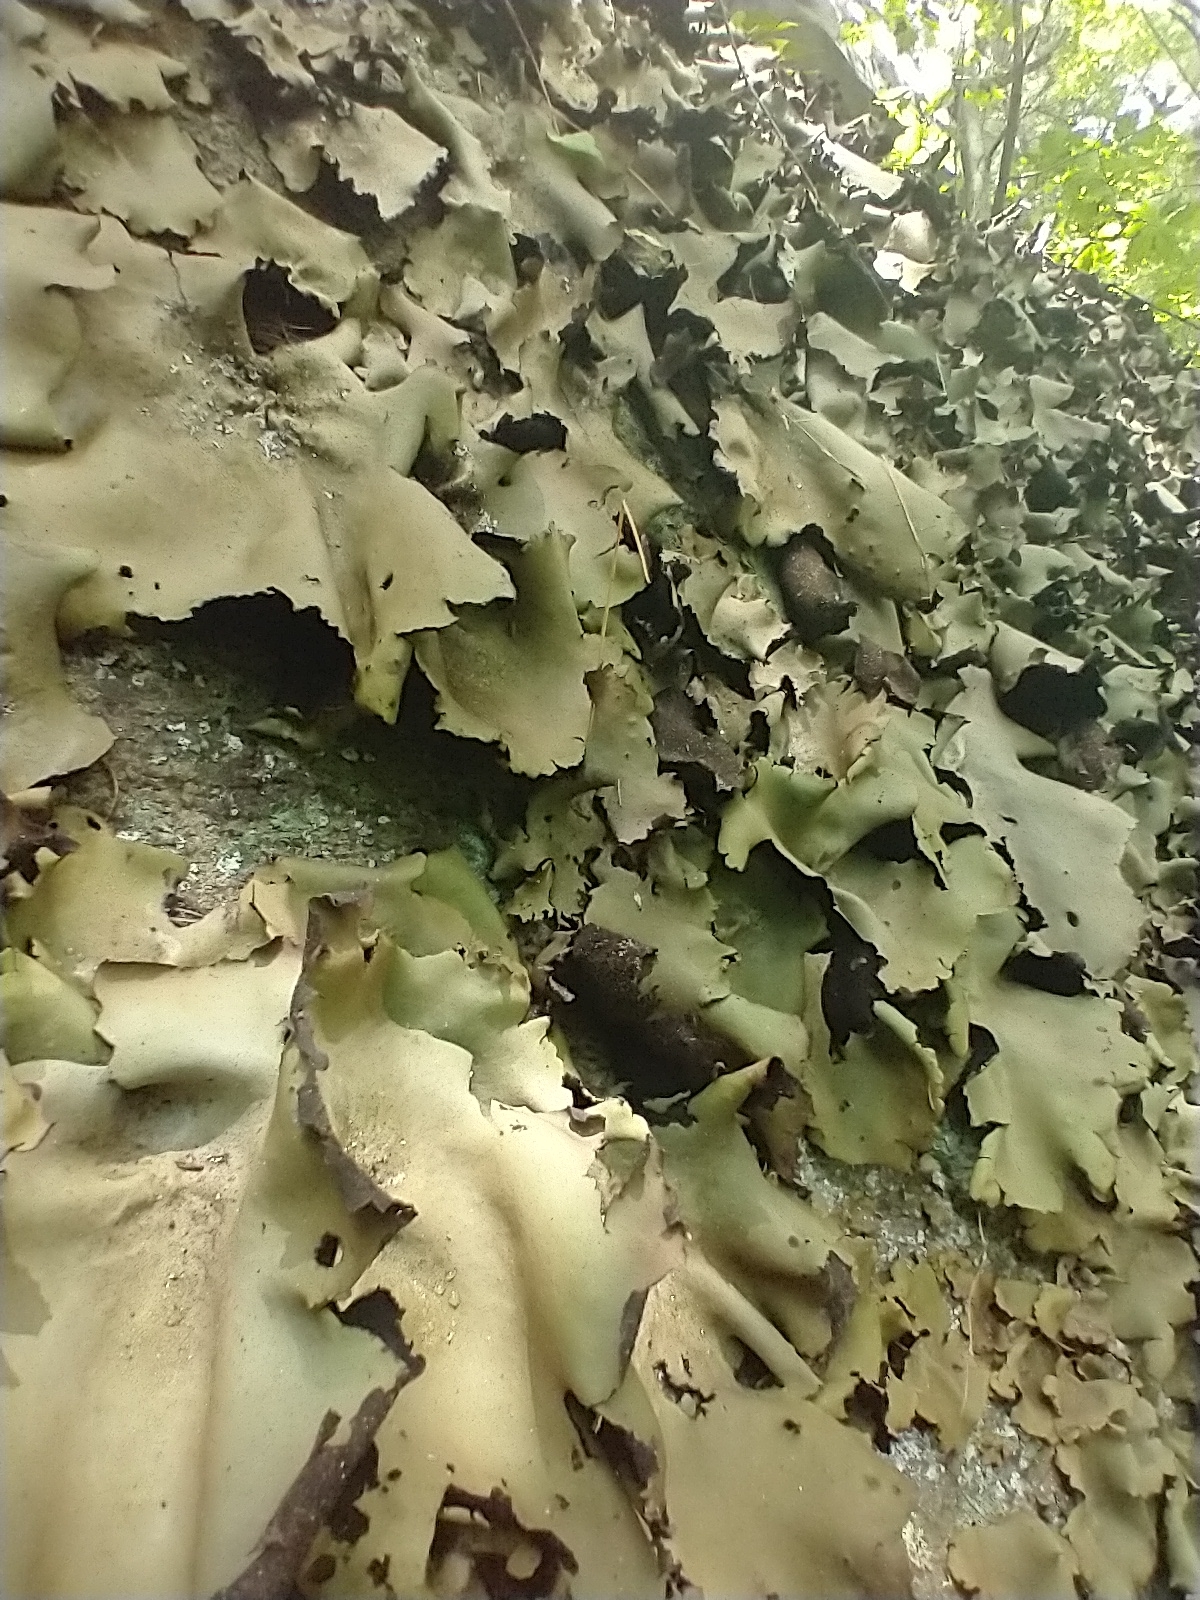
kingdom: Fungi
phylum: Ascomycota
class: Lecanoromycetes
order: Umbilicariales
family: Umbilicariaceae
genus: Umbilicaria
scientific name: Umbilicaria mammulata
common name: Smooth rock tripe
